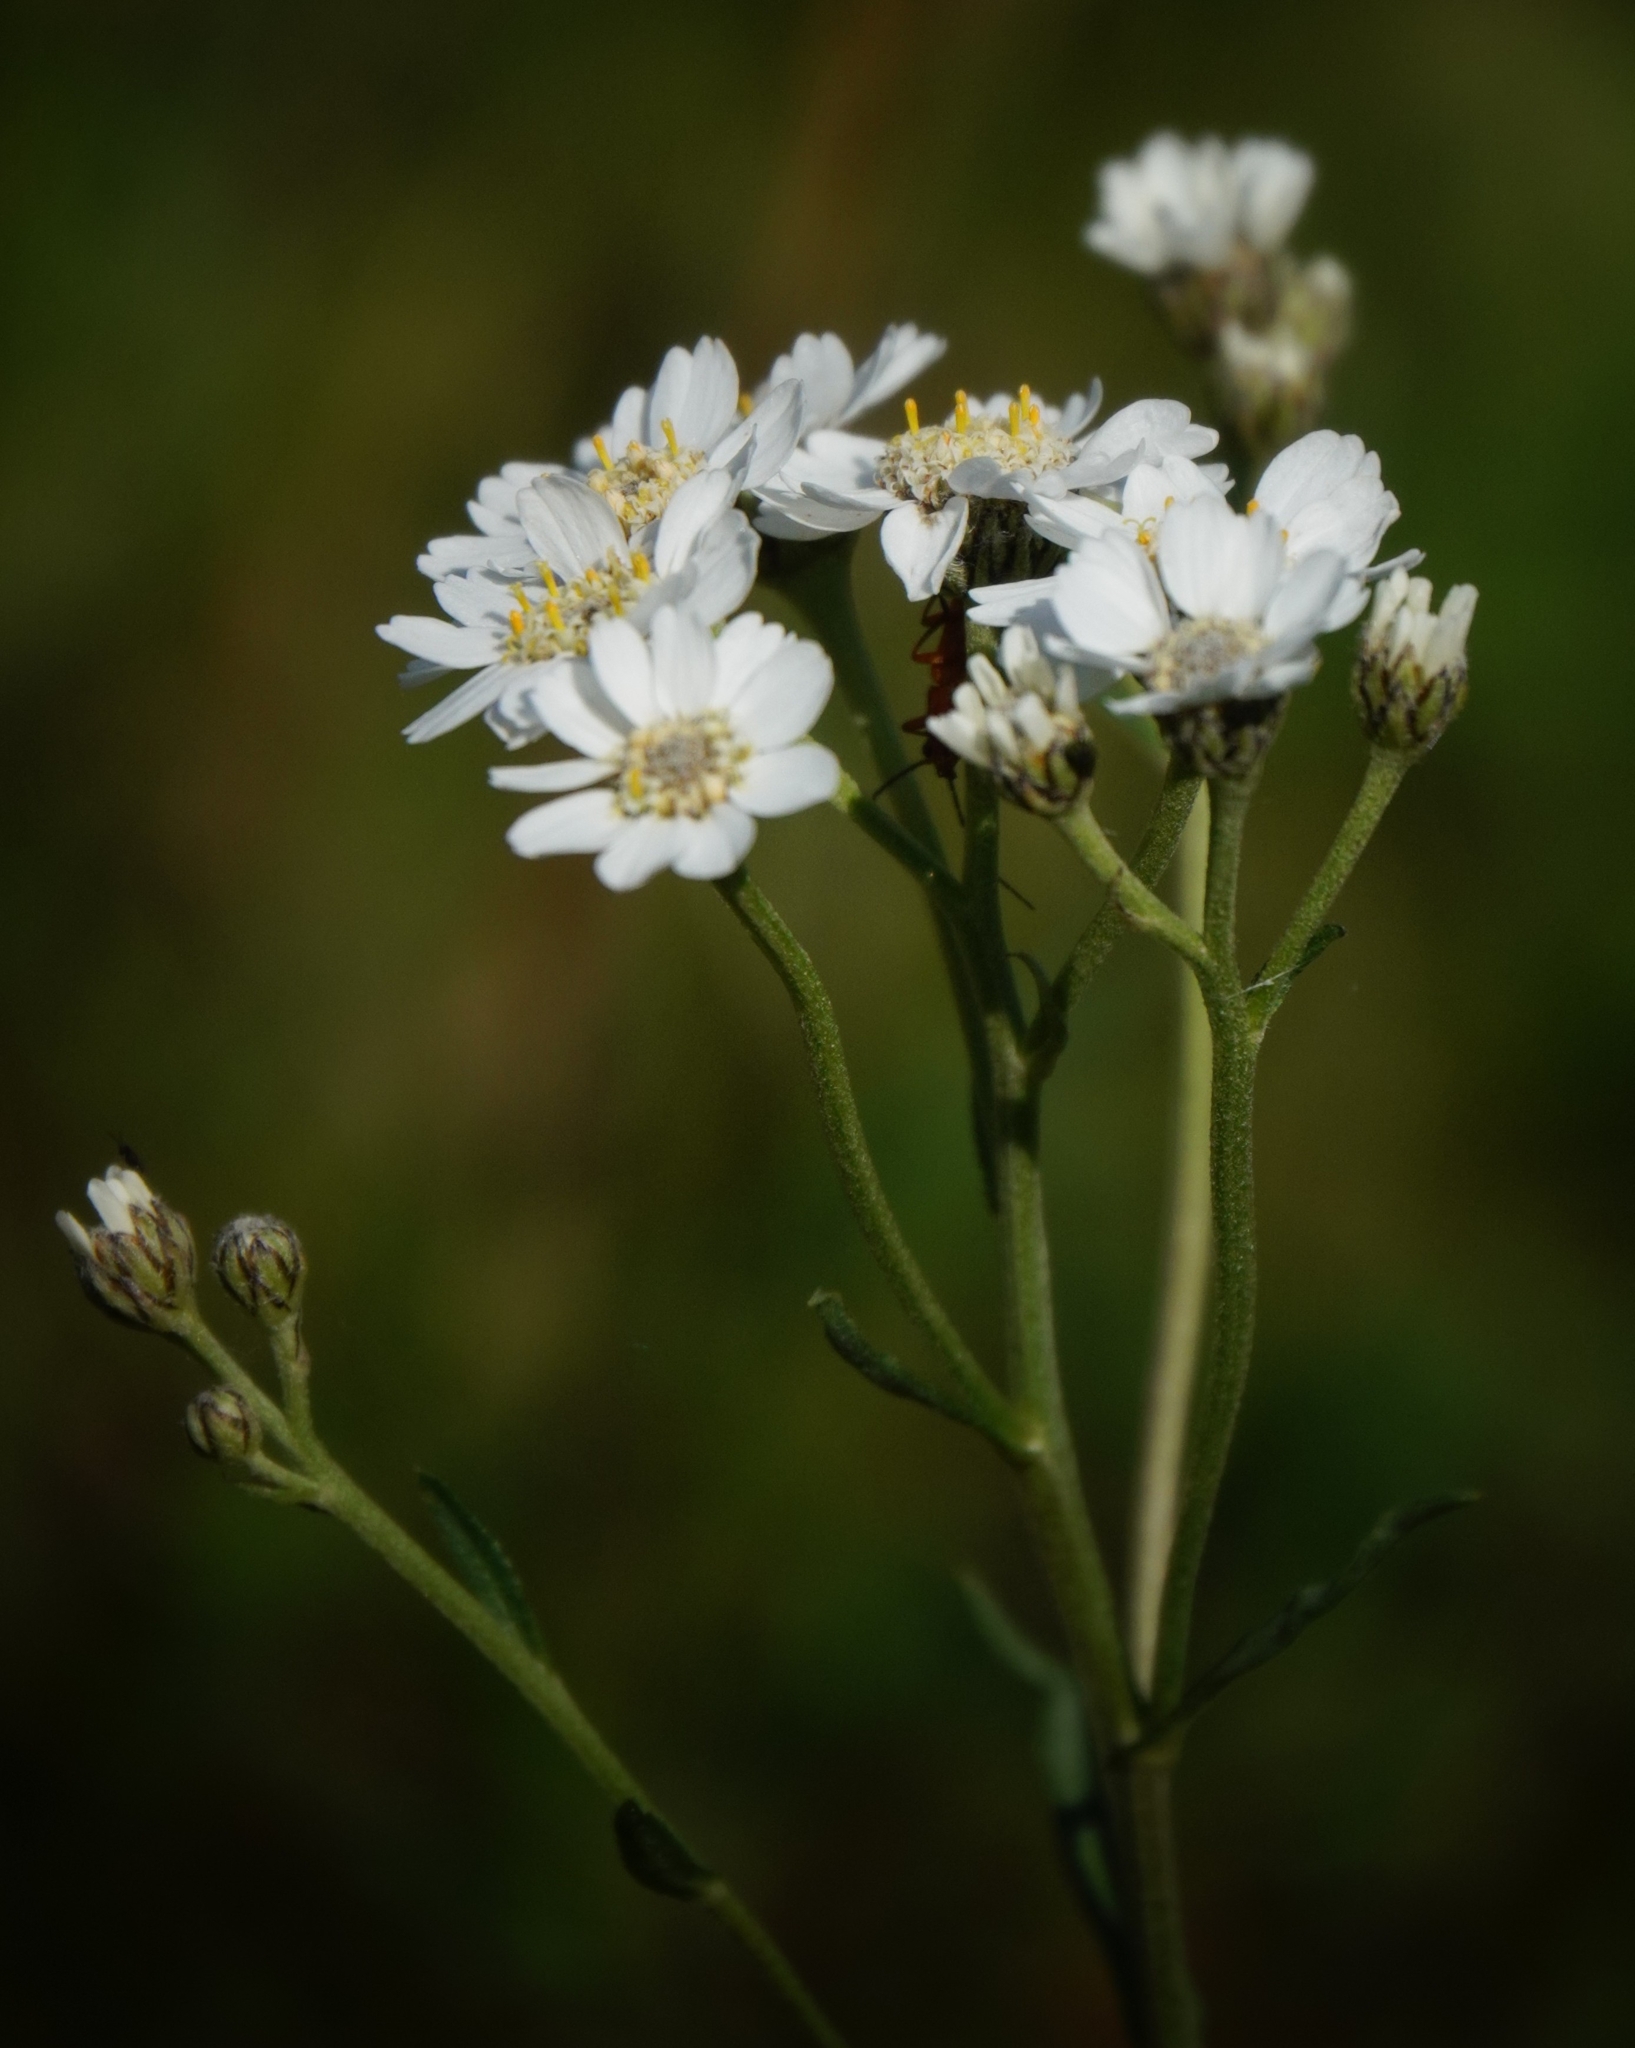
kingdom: Plantae
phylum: Tracheophyta
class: Magnoliopsida
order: Asterales
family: Asteraceae
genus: Achillea
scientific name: Achillea ptarmica
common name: Sneezeweed
